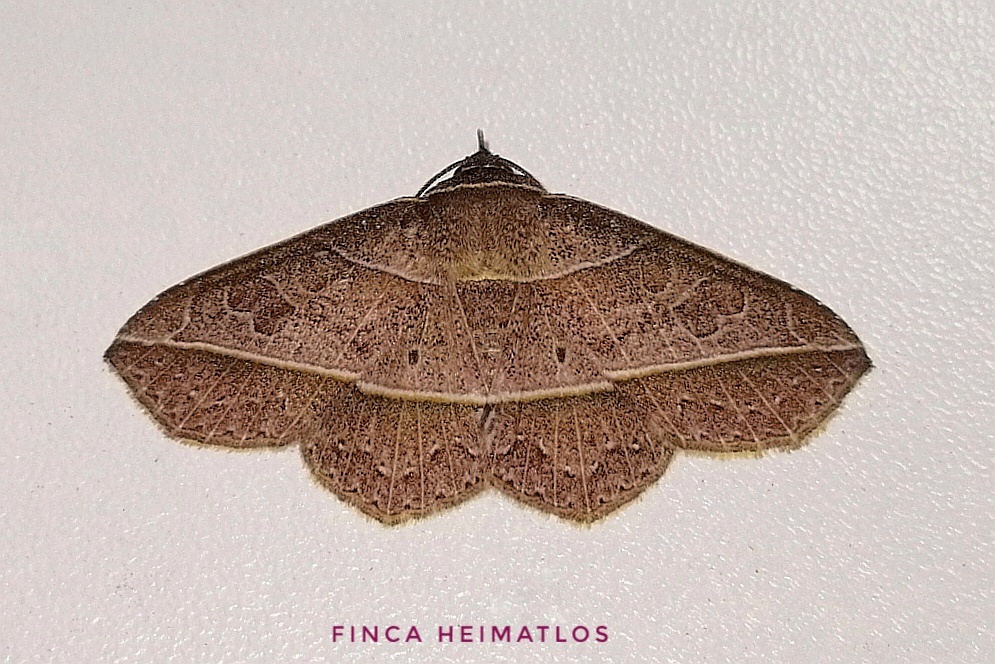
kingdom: Animalia
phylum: Arthropoda
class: Insecta
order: Lepidoptera
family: Erebidae
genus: Sanys
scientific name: Sanys irrosea
